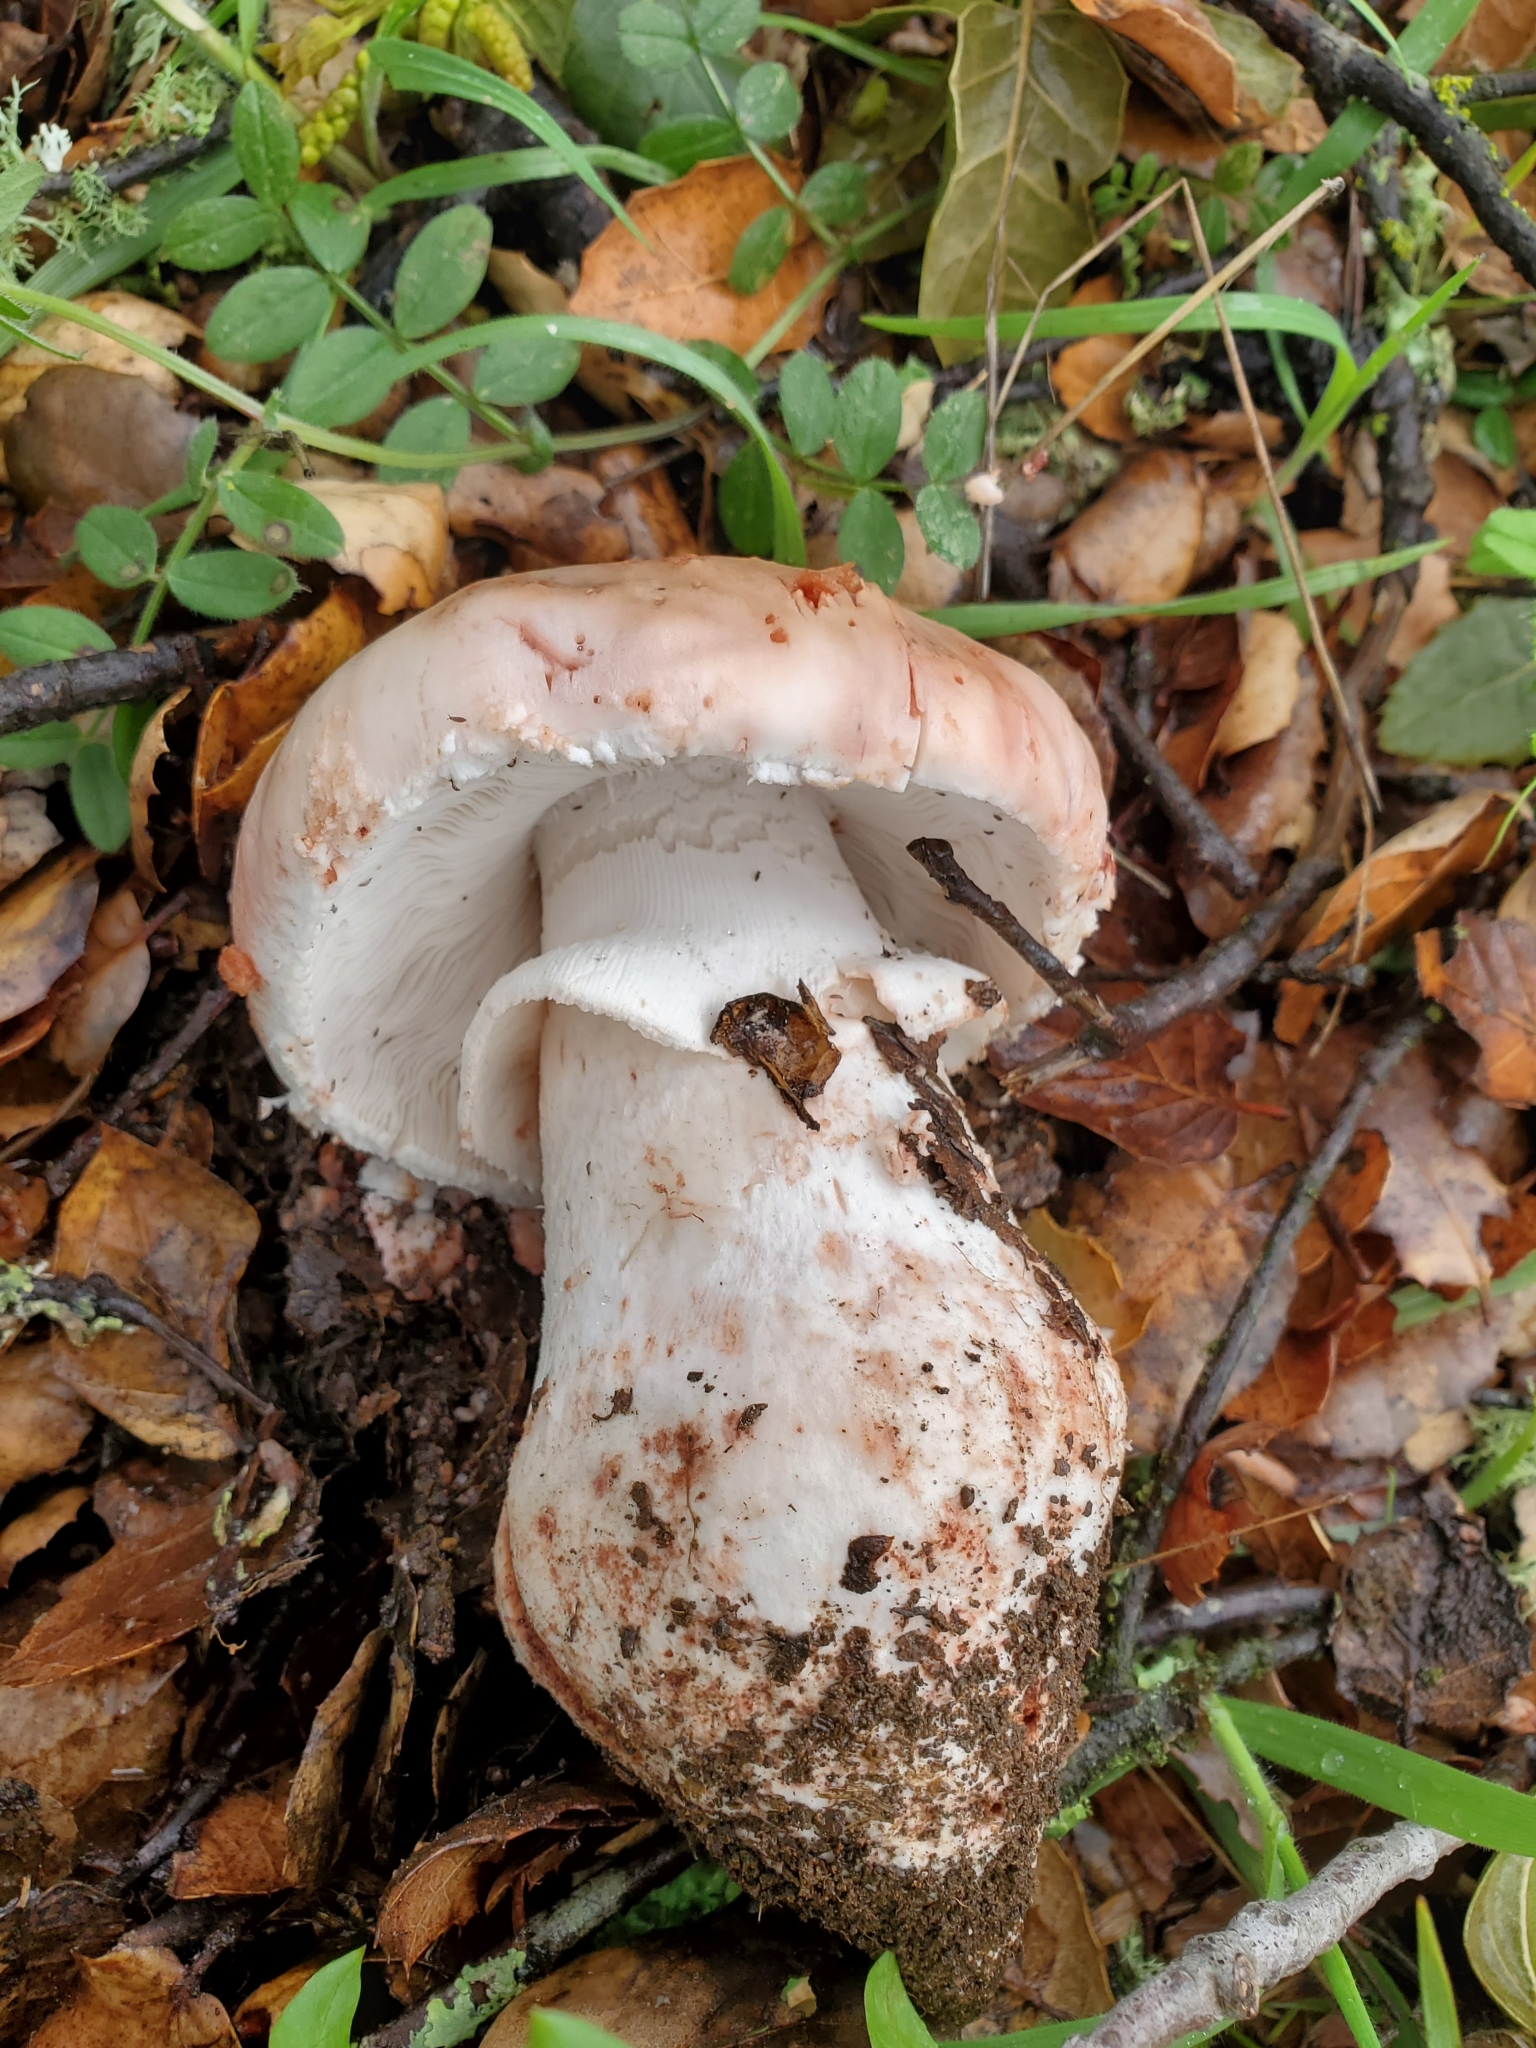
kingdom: Fungi
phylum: Basidiomycota
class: Agaricomycetes
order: Agaricales
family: Amanitaceae
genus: Amanita
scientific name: Amanita novinupta
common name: Blushing bride
